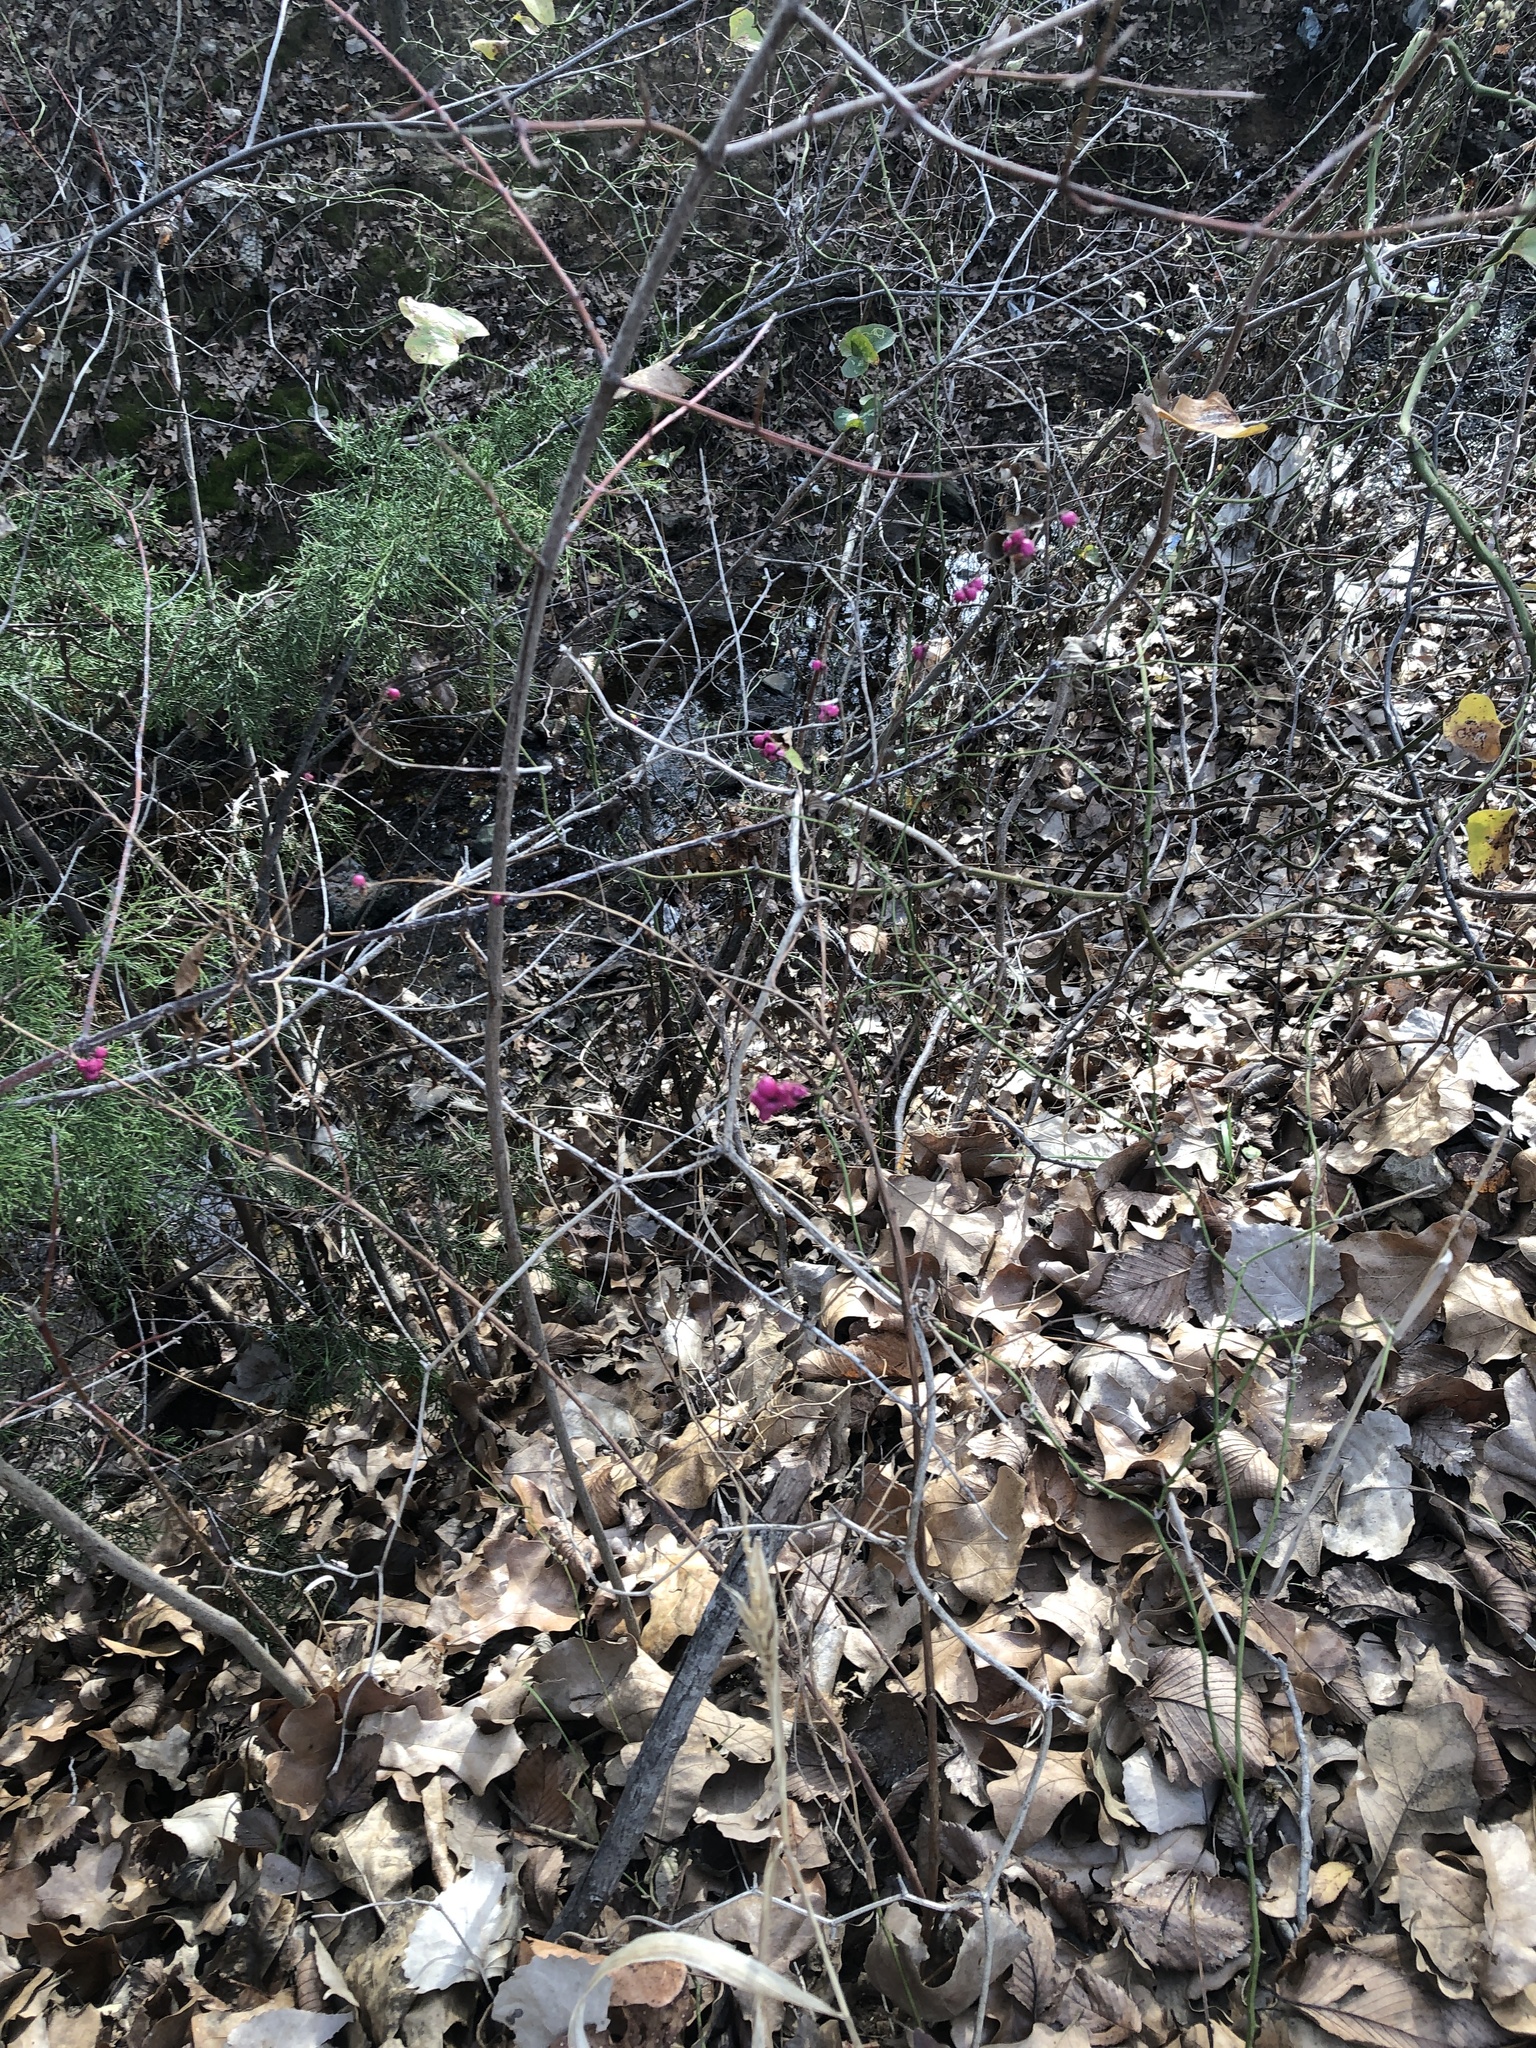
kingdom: Plantae
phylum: Tracheophyta
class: Magnoliopsida
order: Dipsacales
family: Caprifoliaceae
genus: Symphoricarpos
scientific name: Symphoricarpos orbiculatus
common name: Coralberry
